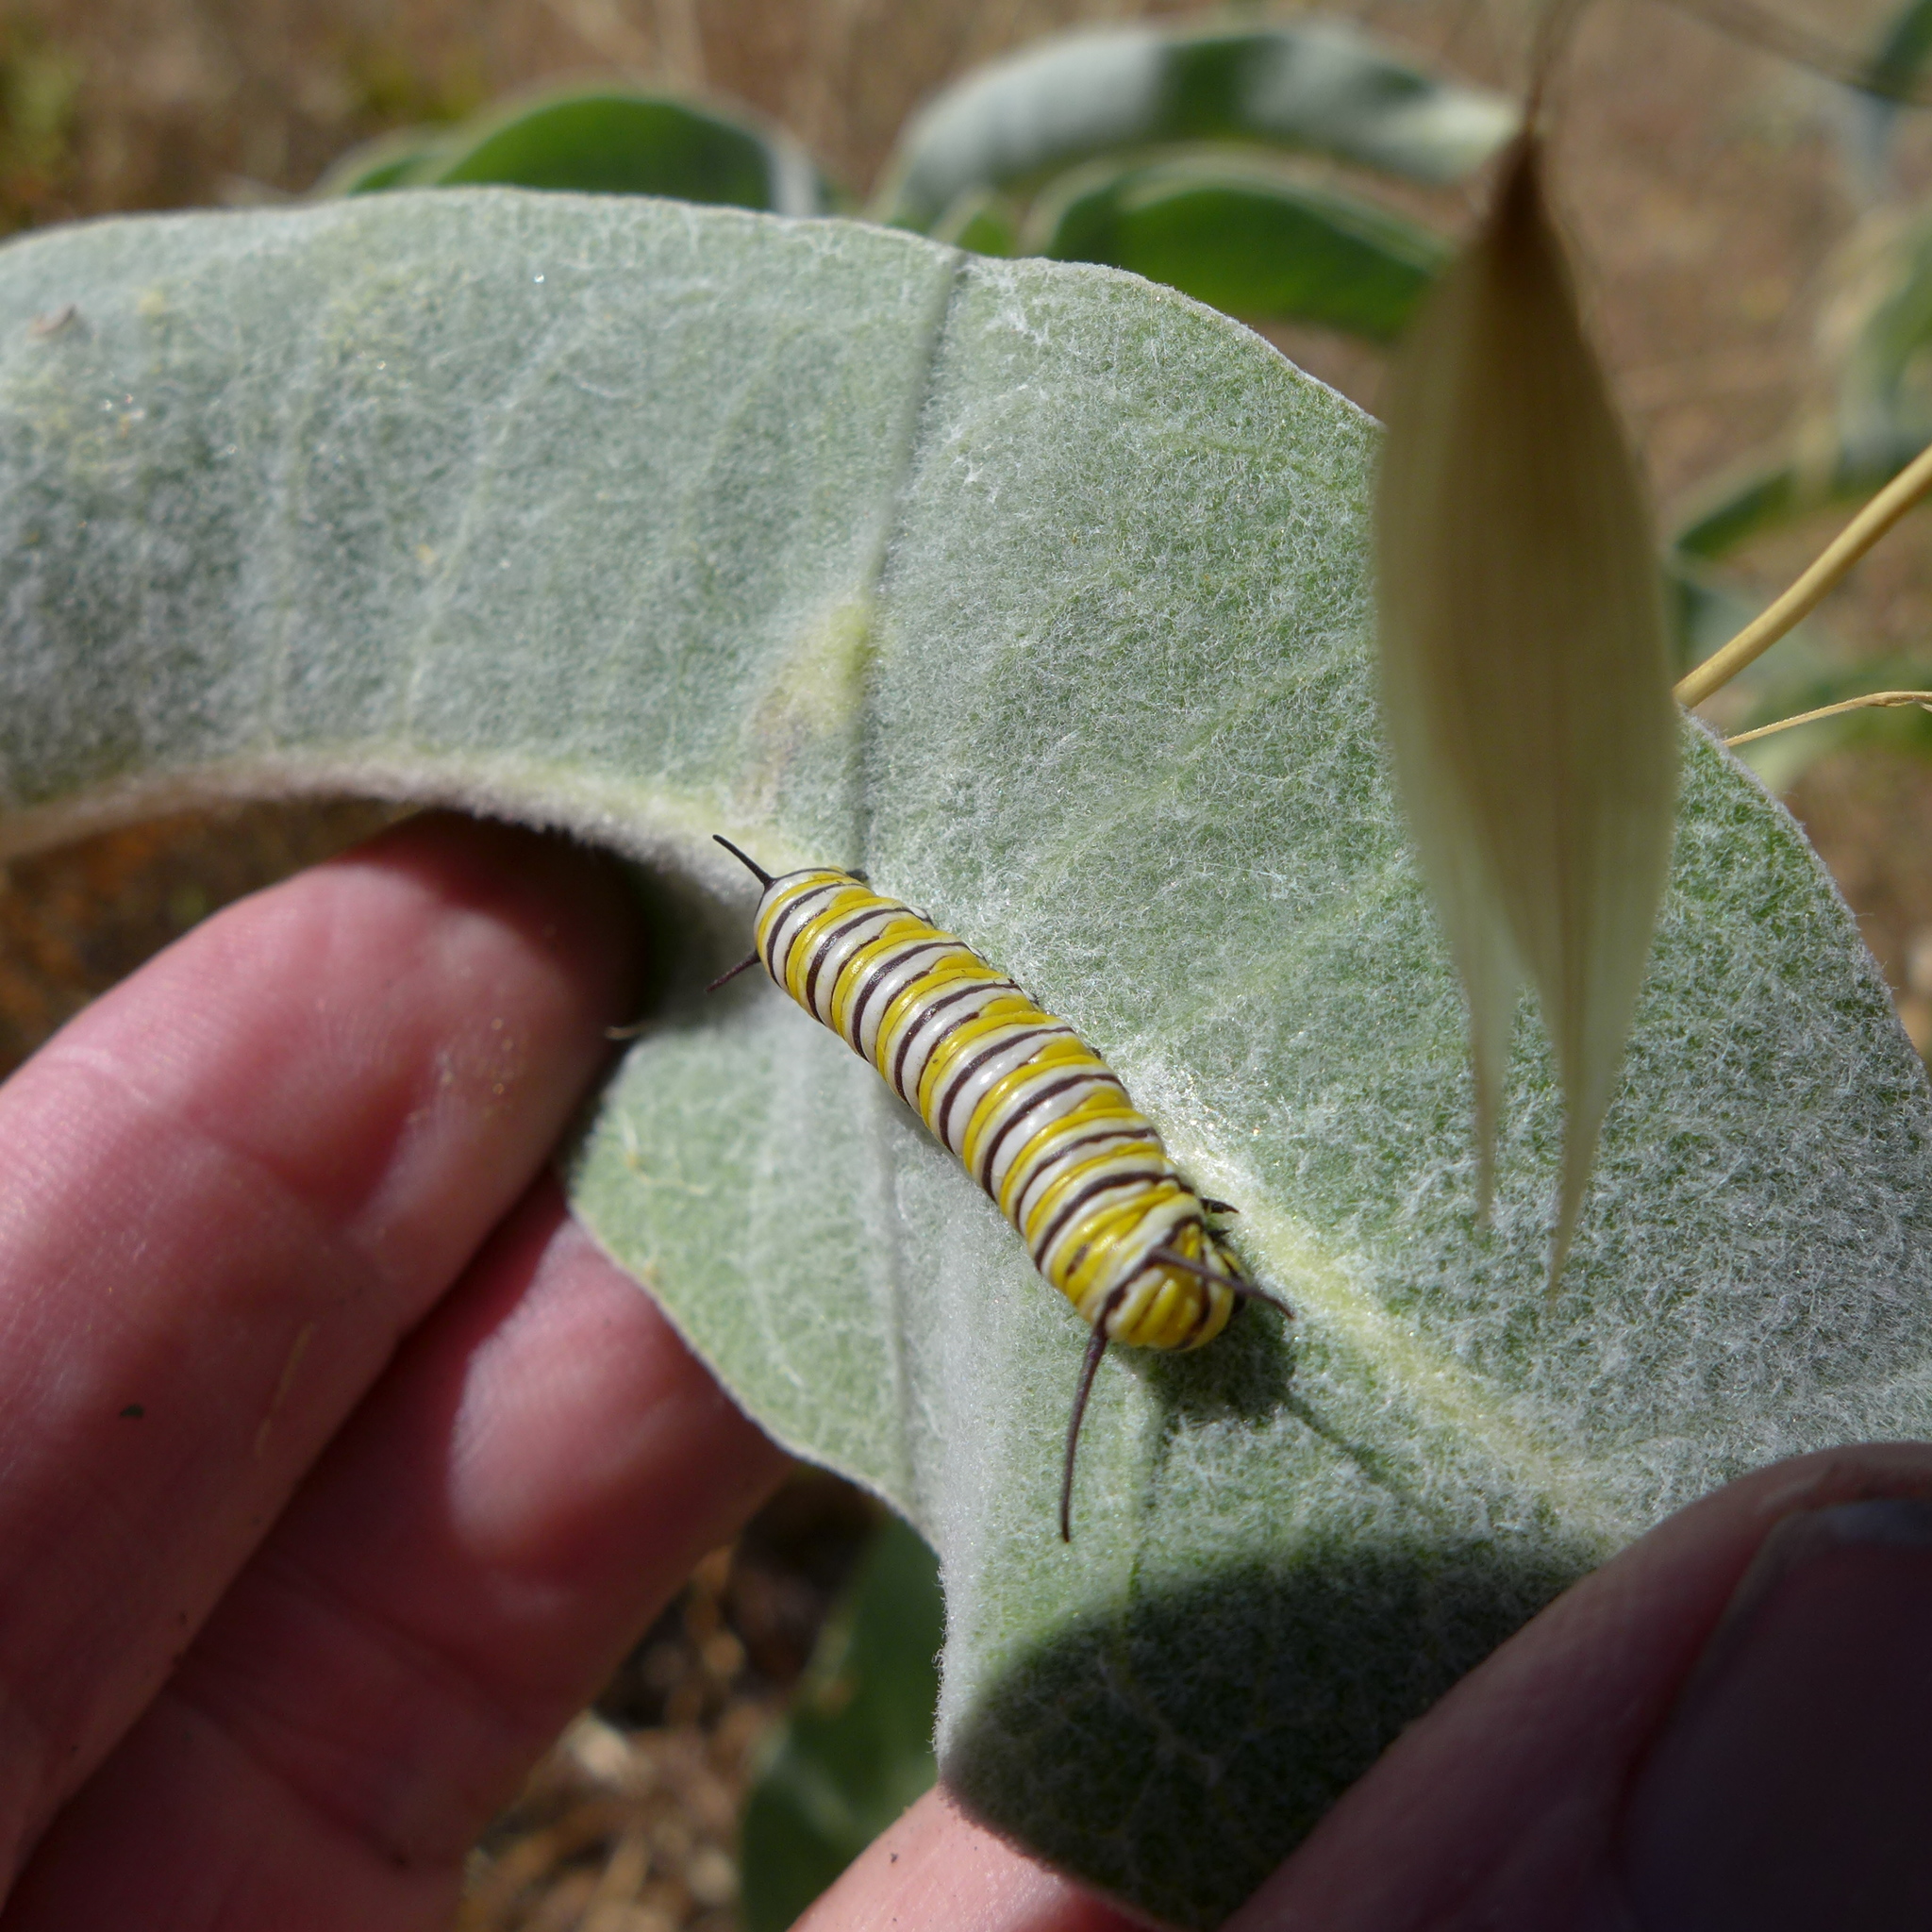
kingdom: Animalia
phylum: Arthropoda
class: Insecta
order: Lepidoptera
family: Nymphalidae
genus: Danaus
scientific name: Danaus plexippus
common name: Monarch
